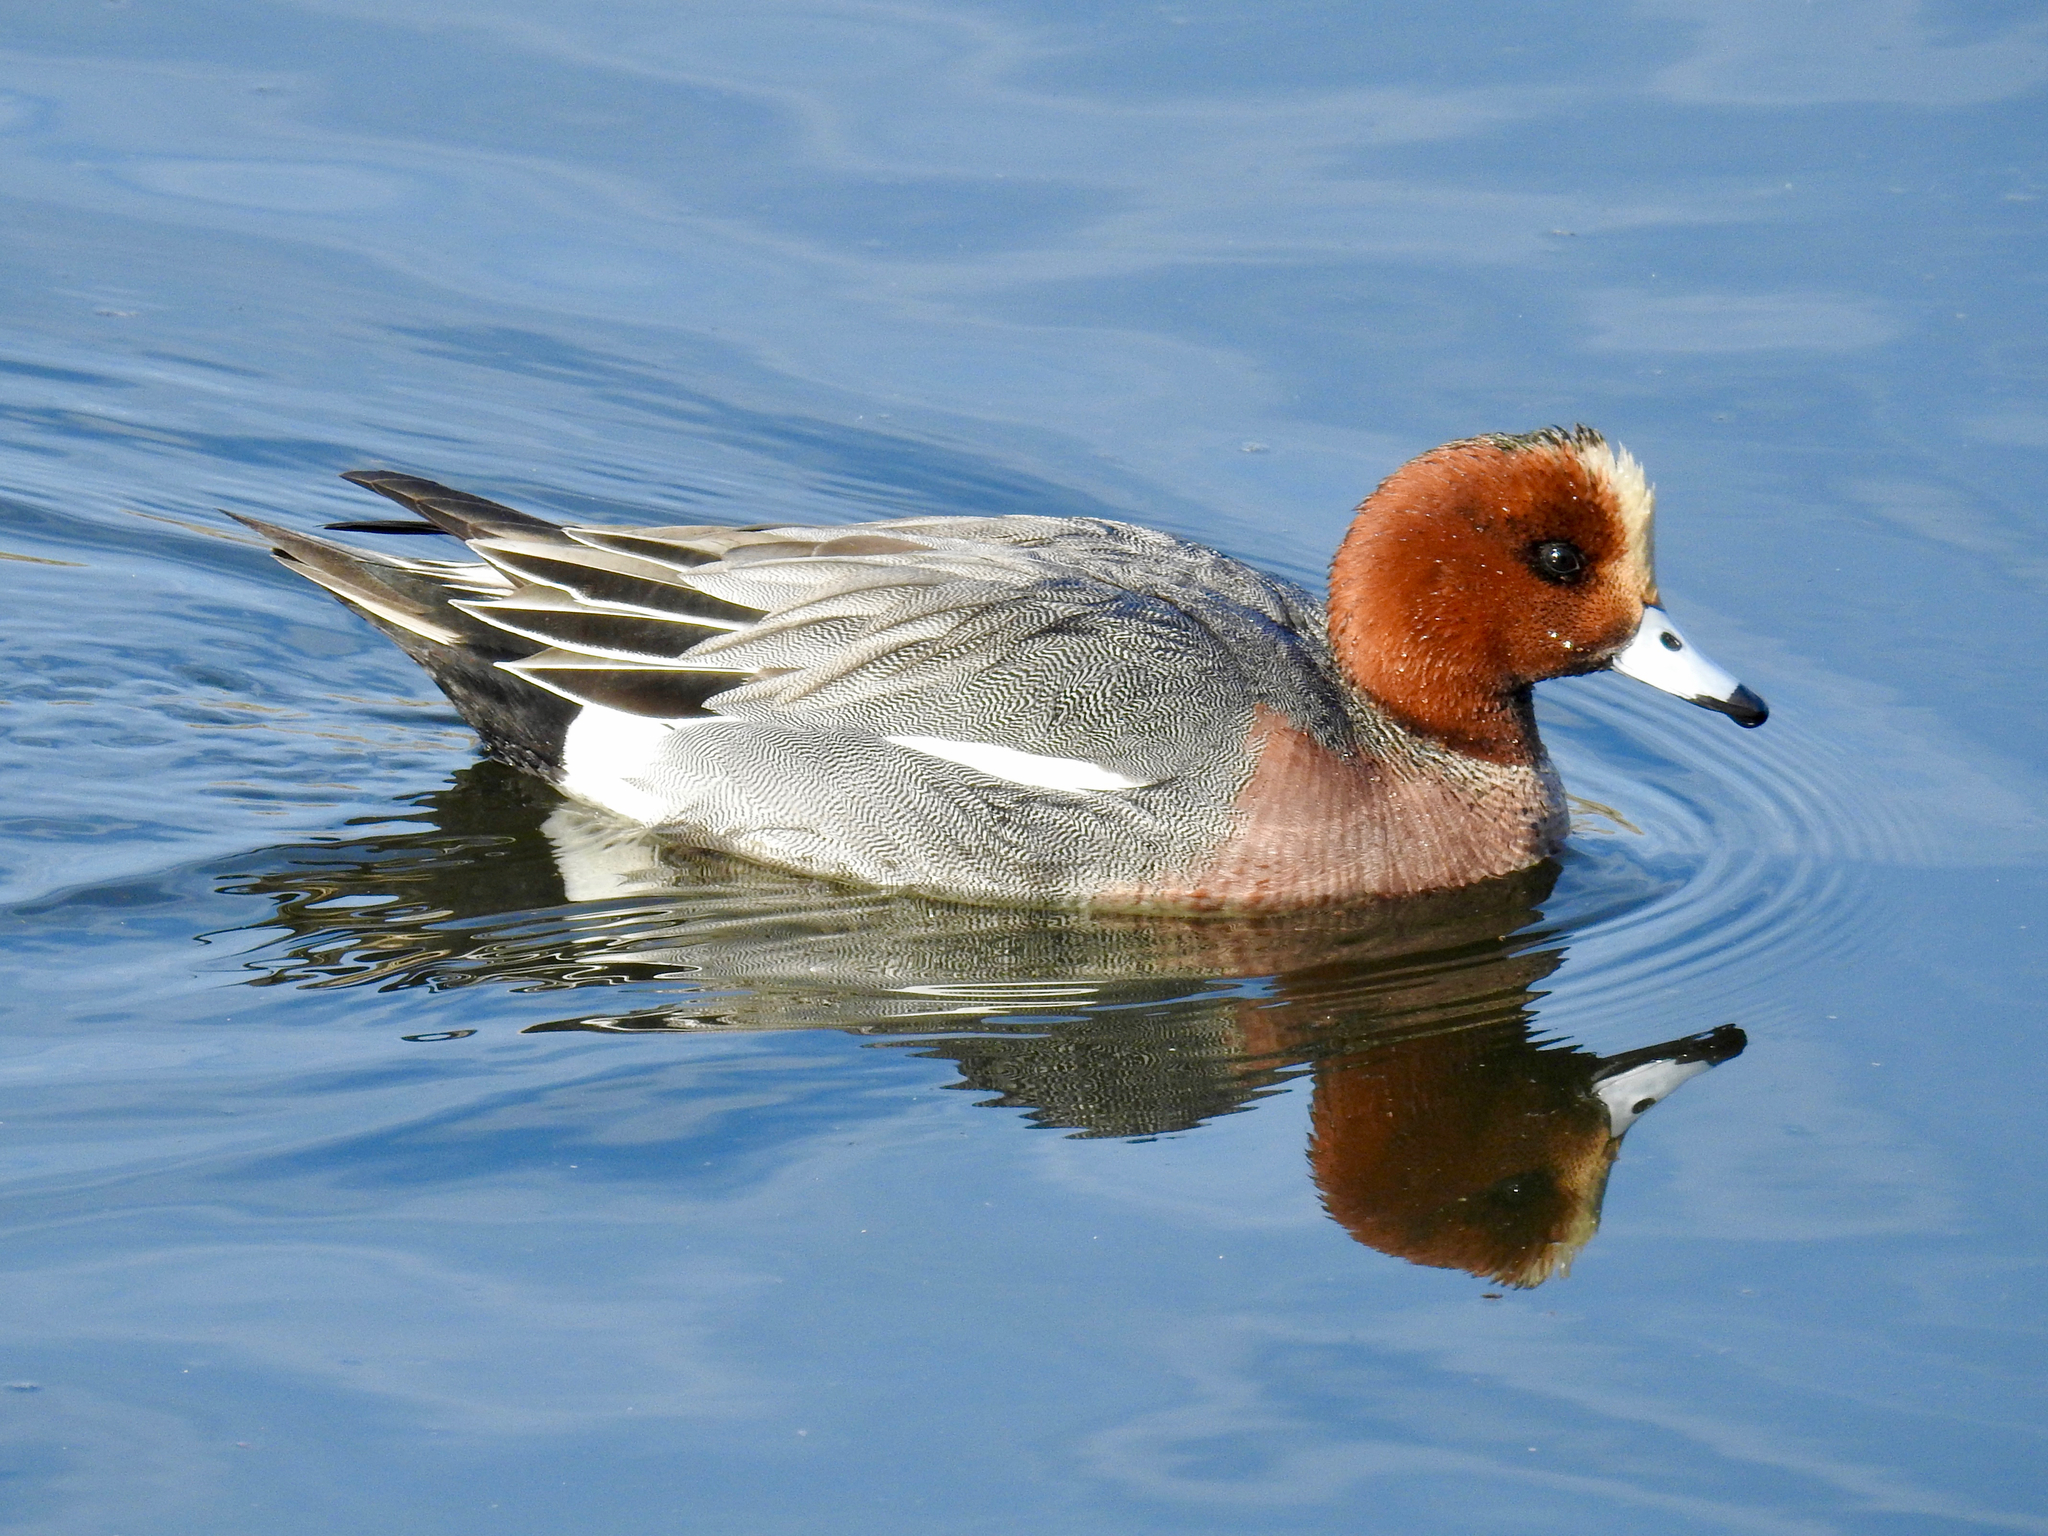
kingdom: Animalia
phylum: Chordata
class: Aves
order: Anseriformes
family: Anatidae
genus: Mareca
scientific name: Mareca penelope
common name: Eurasian wigeon
